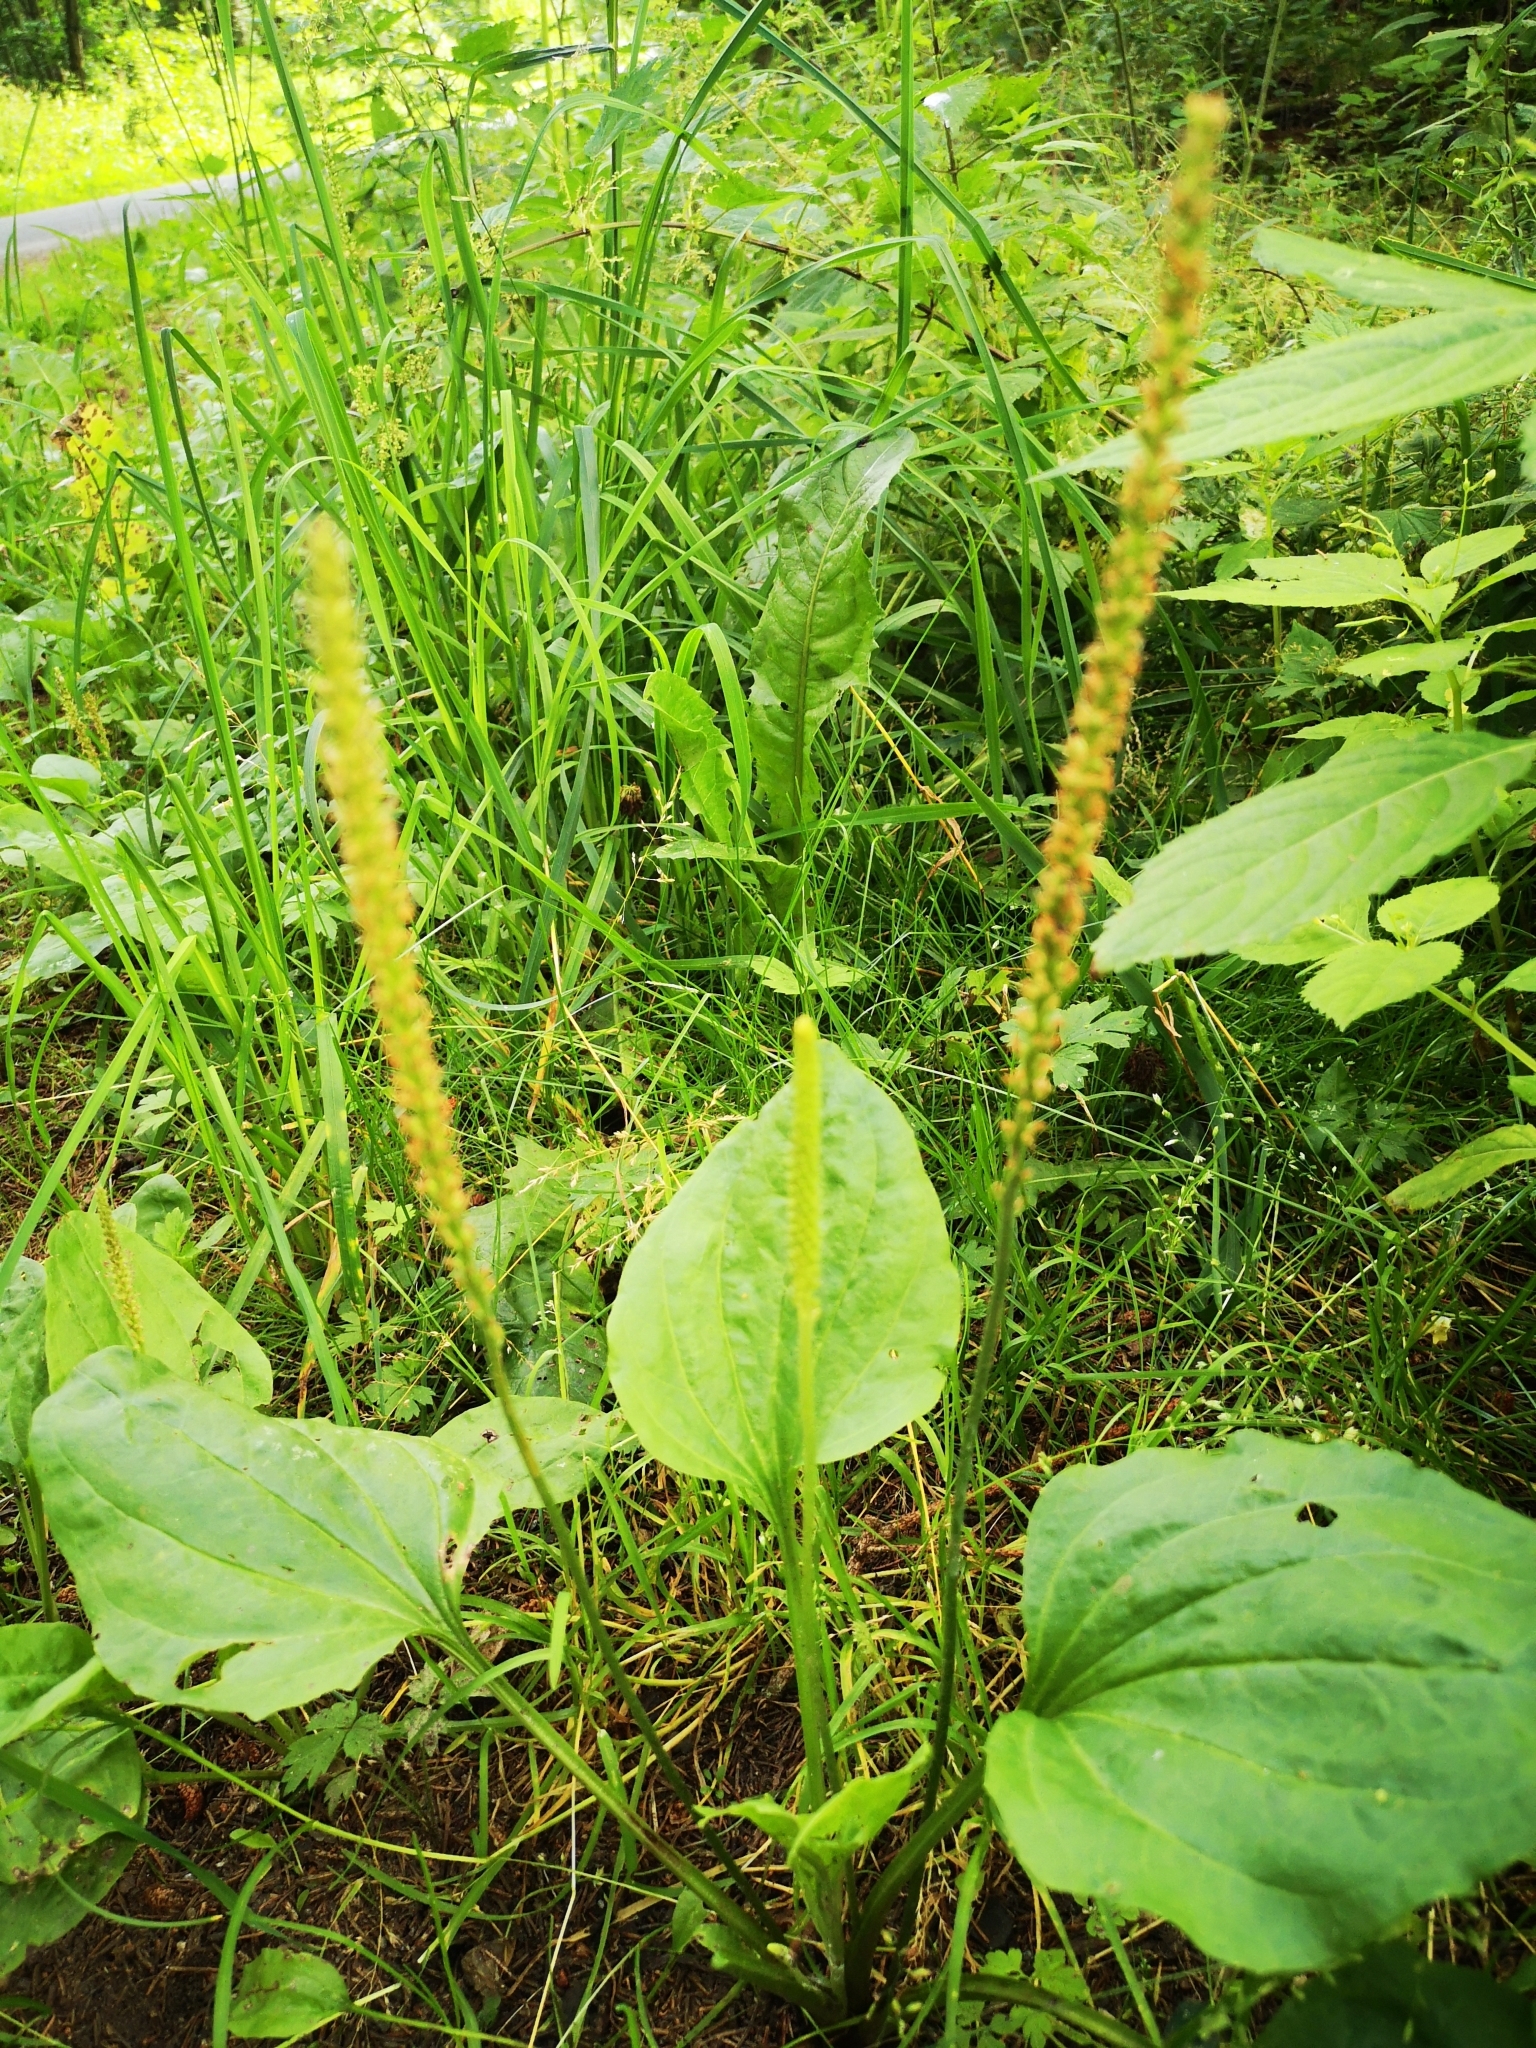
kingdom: Plantae
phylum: Tracheophyta
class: Magnoliopsida
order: Lamiales
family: Plantaginaceae
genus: Plantago
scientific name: Plantago major
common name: Common plantain
